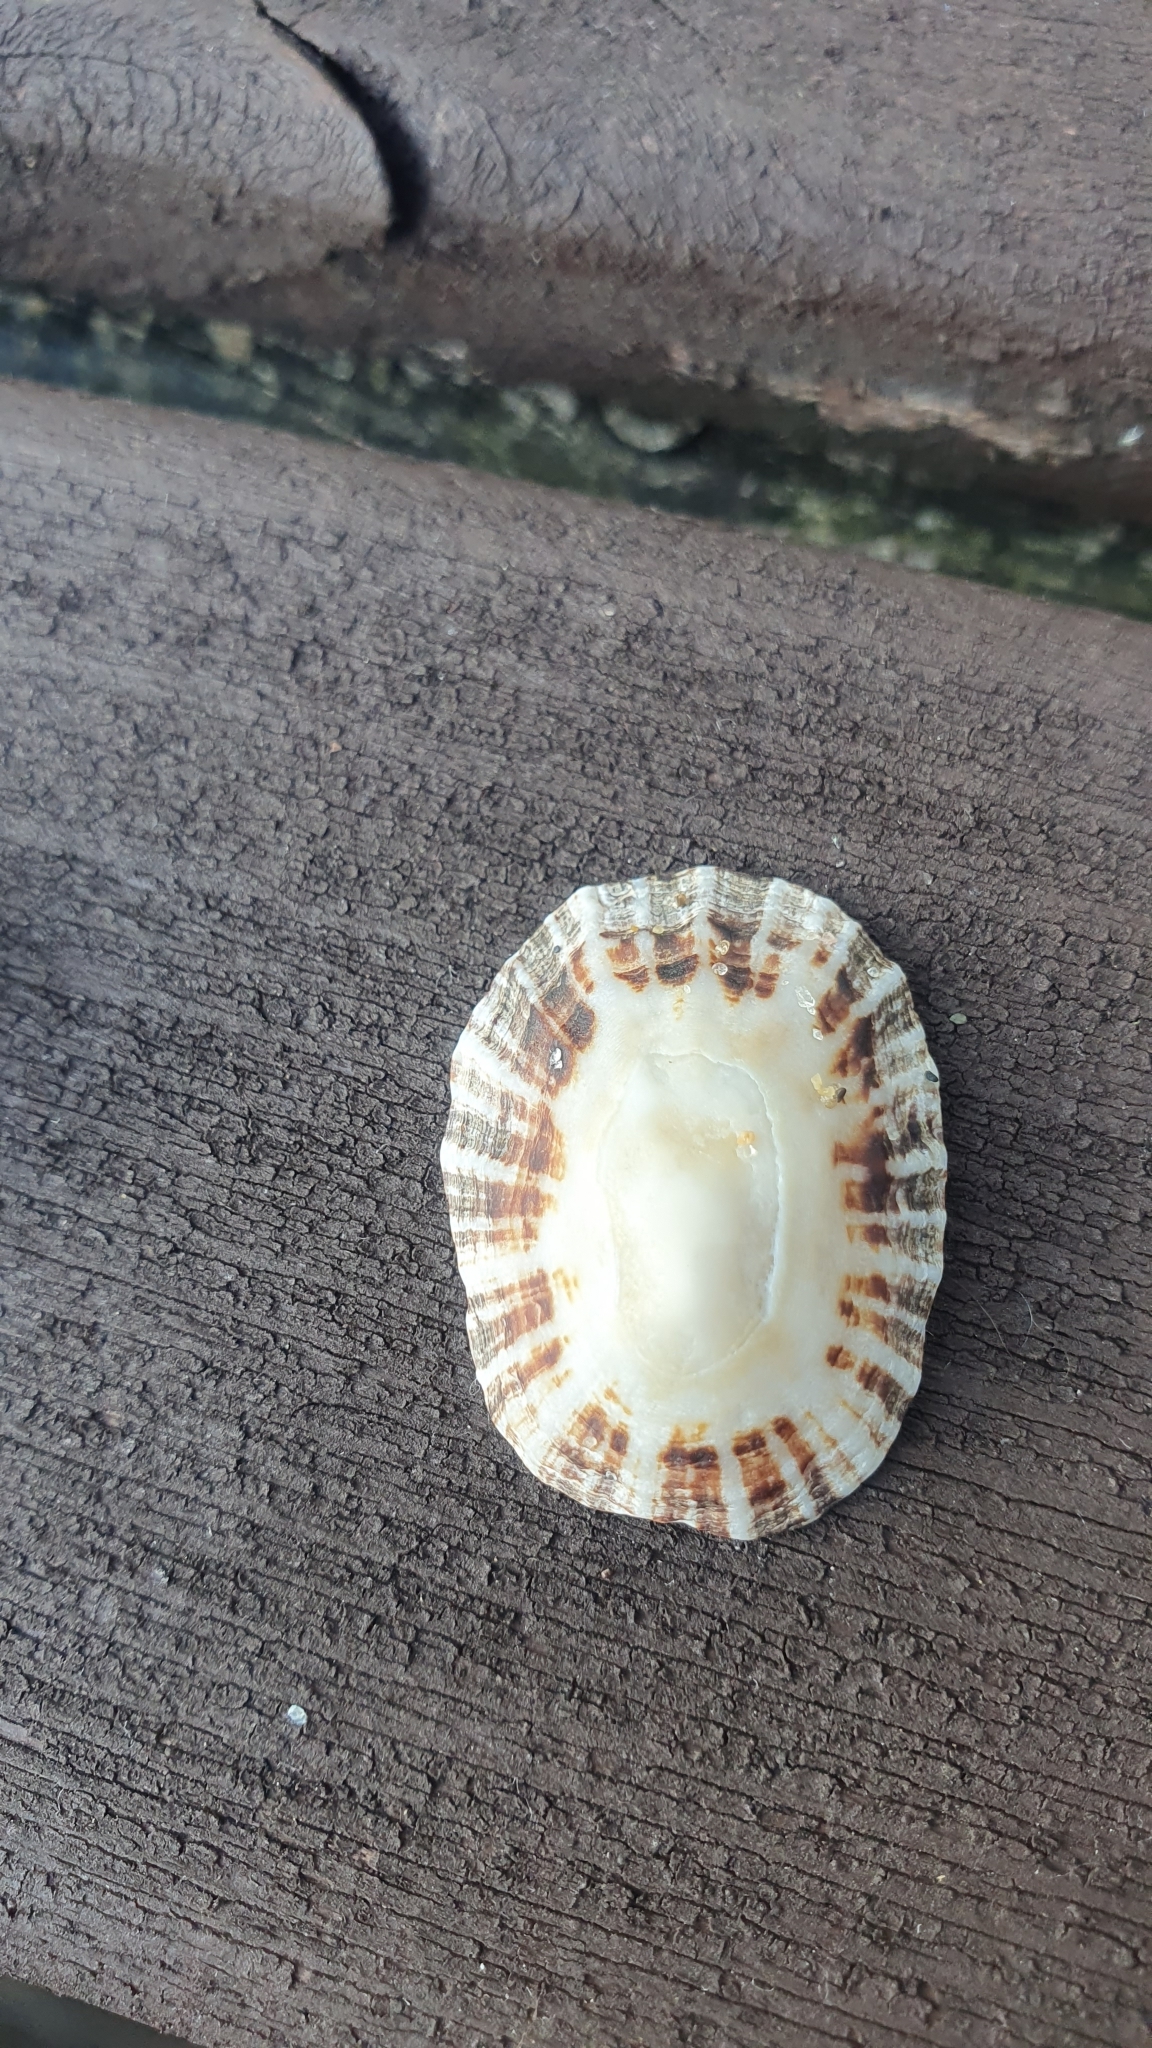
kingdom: Animalia
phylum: Mollusca
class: Gastropoda
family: Patellidae
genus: Patella
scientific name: Patella
